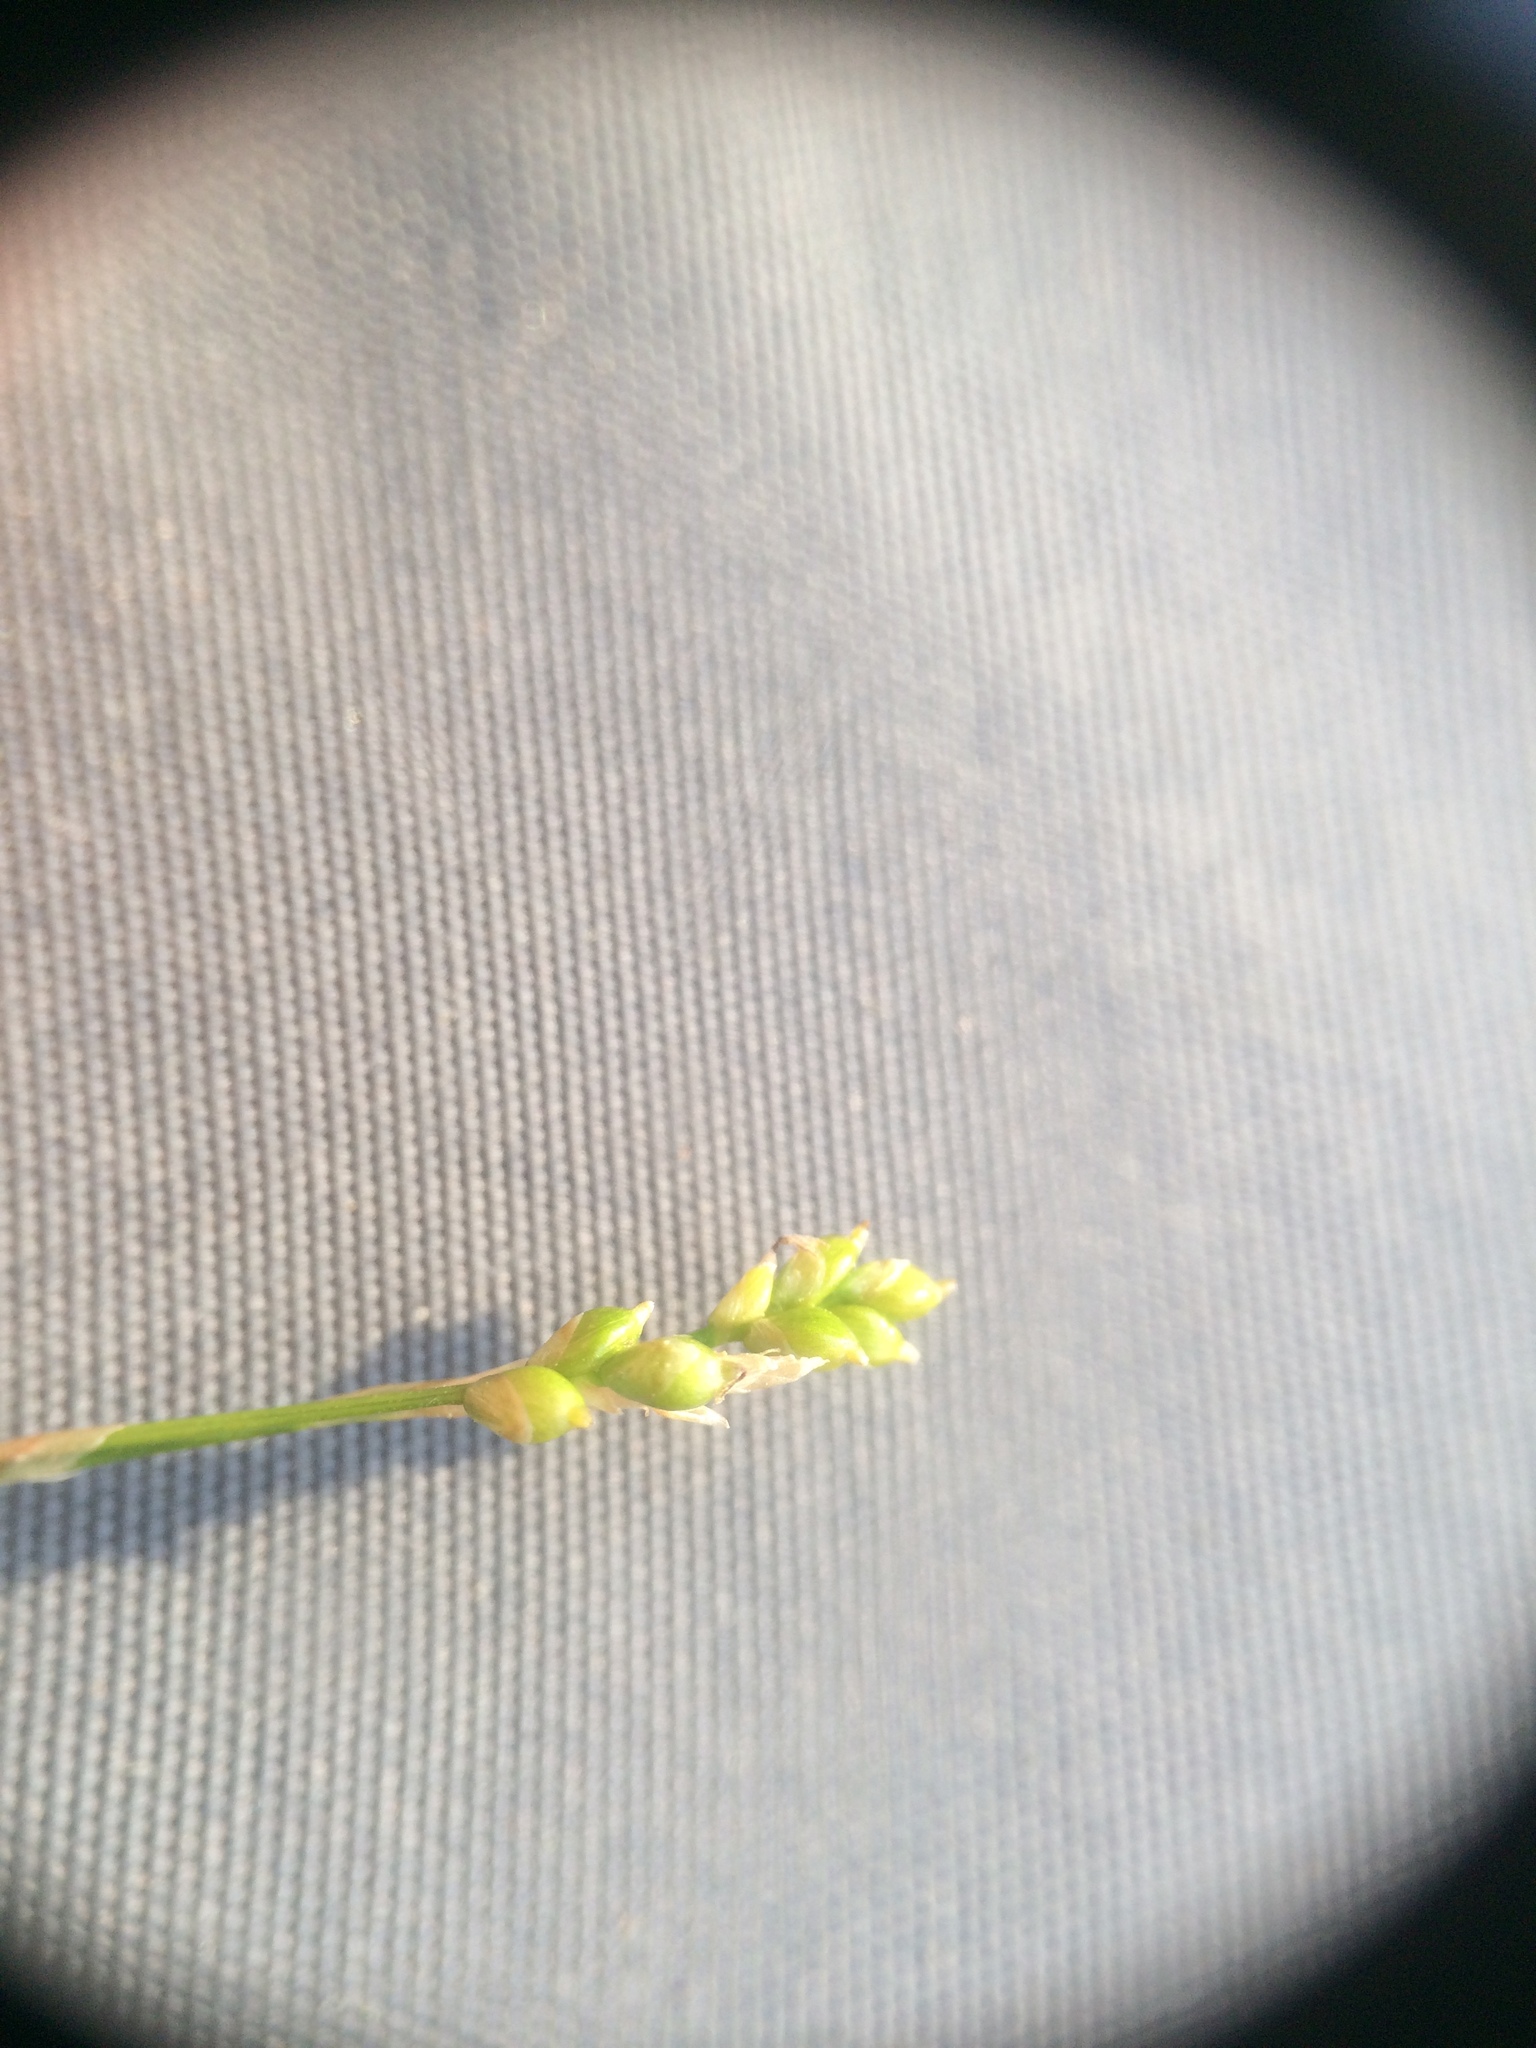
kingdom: Plantae
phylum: Tracheophyta
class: Liliopsida
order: Poales
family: Cyperaceae
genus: Carex
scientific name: Carex eburnea
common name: Bristle-leaved sedge
